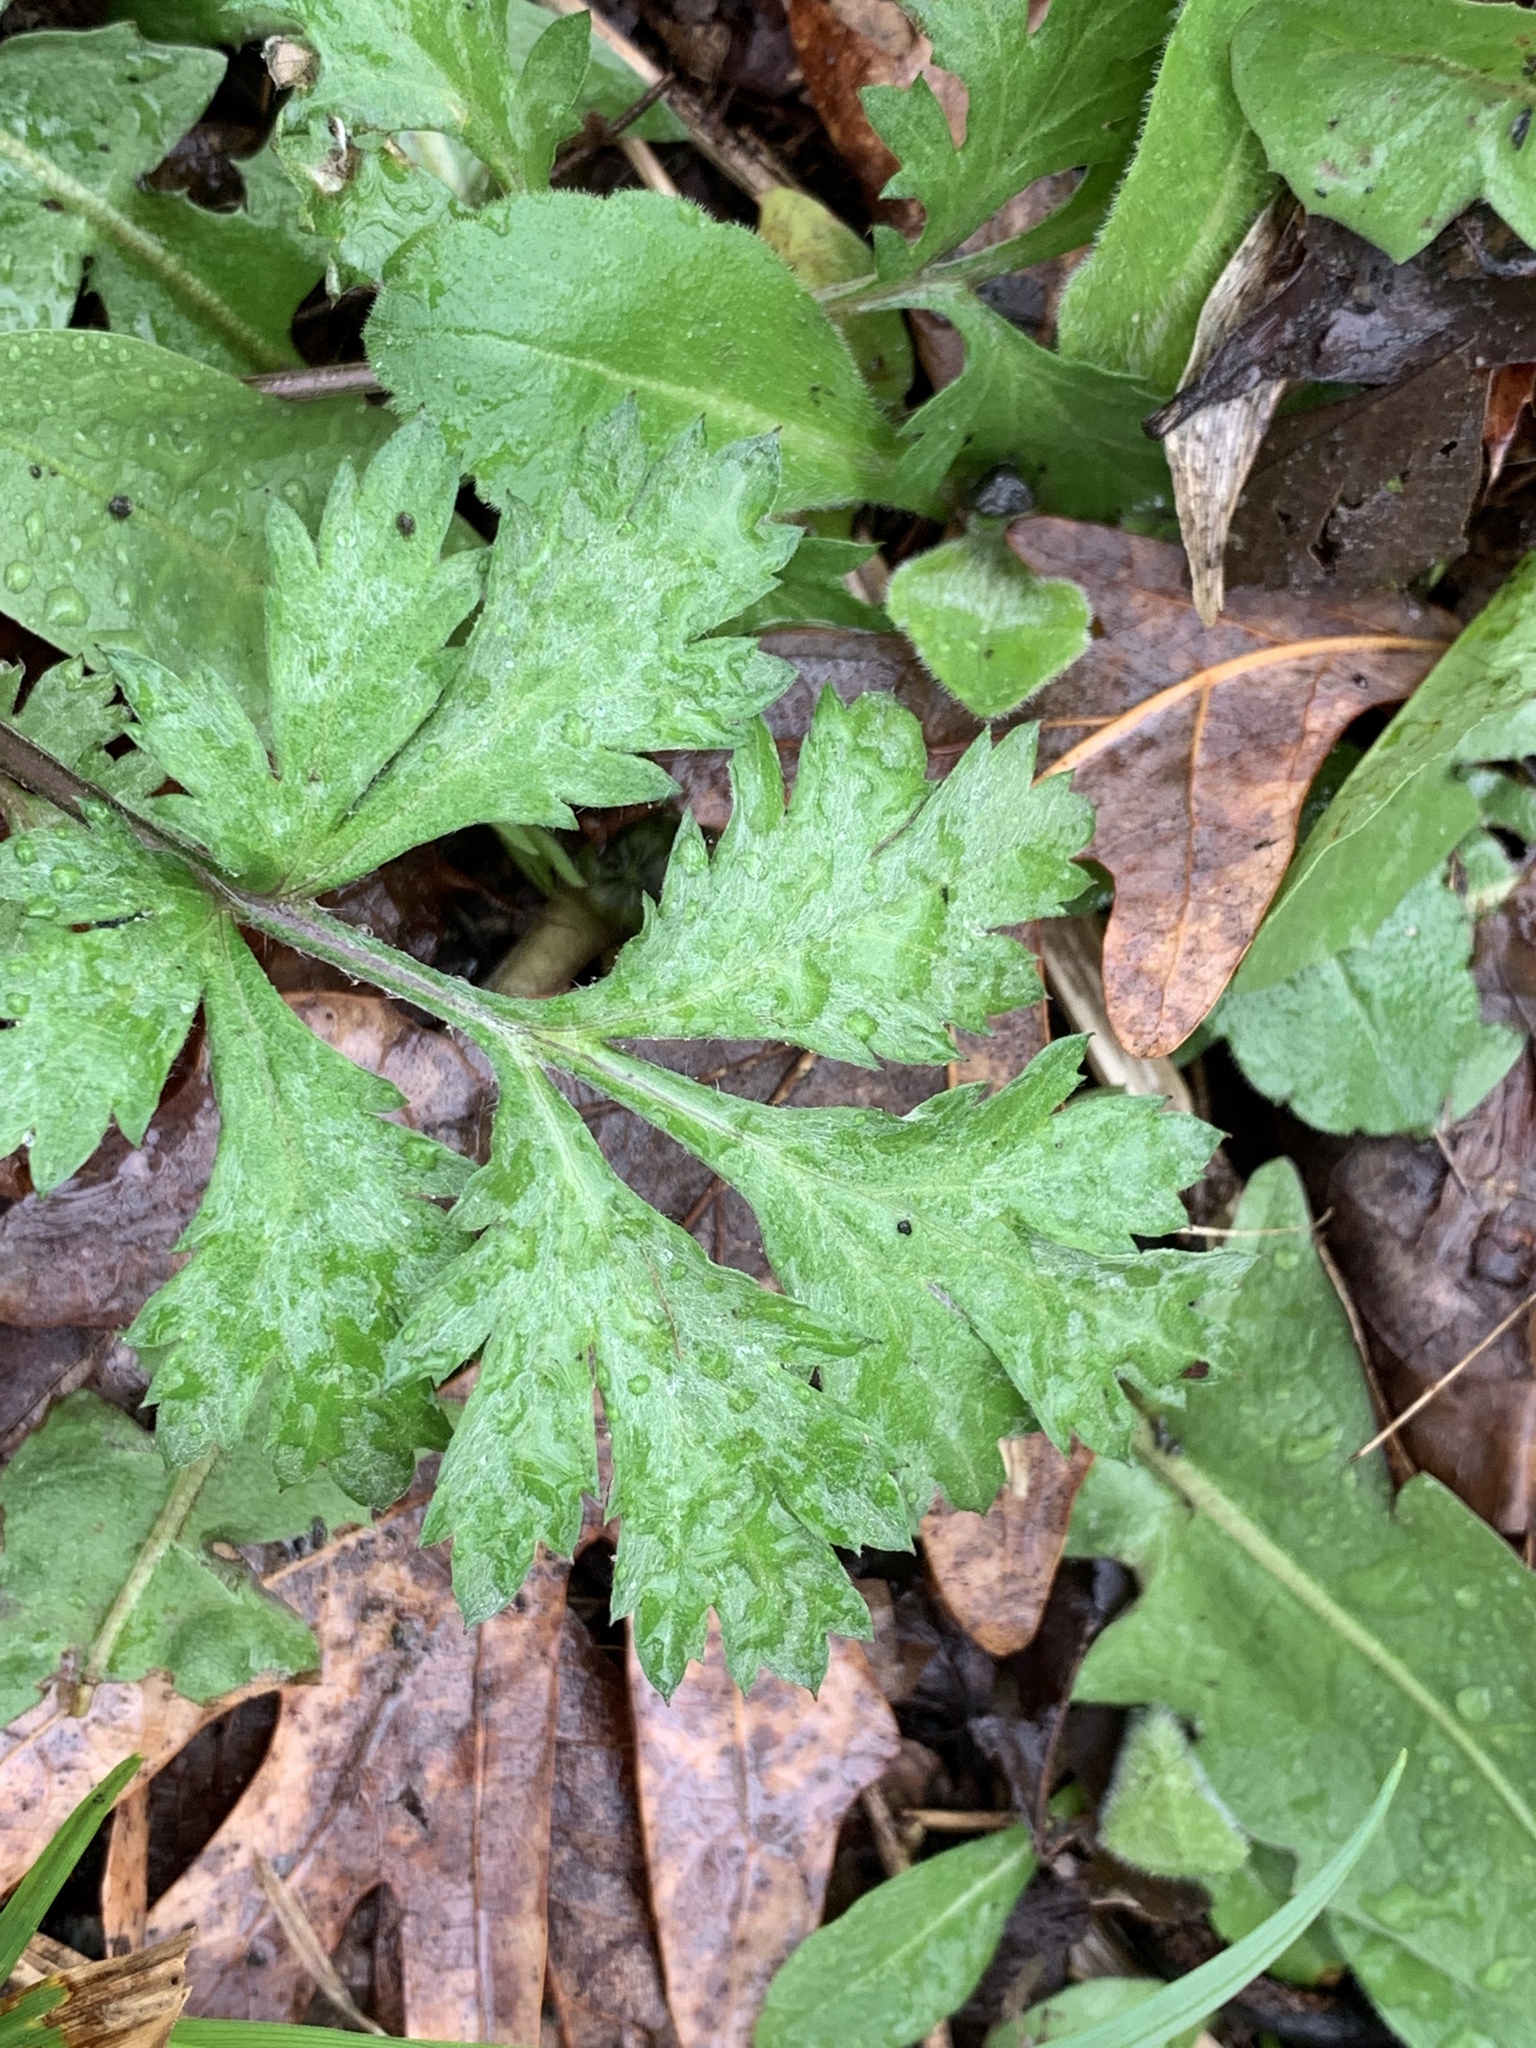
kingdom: Plantae
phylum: Tracheophyta
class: Magnoliopsida
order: Asterales
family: Asteraceae
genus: Artemisia
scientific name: Artemisia vulgaris
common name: Mugwort
